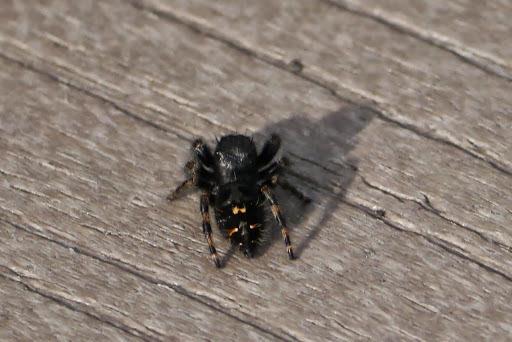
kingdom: Animalia
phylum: Arthropoda
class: Arachnida
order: Araneae
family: Salticidae
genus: Phidippus
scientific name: Phidippus audax
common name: Bold jumper
